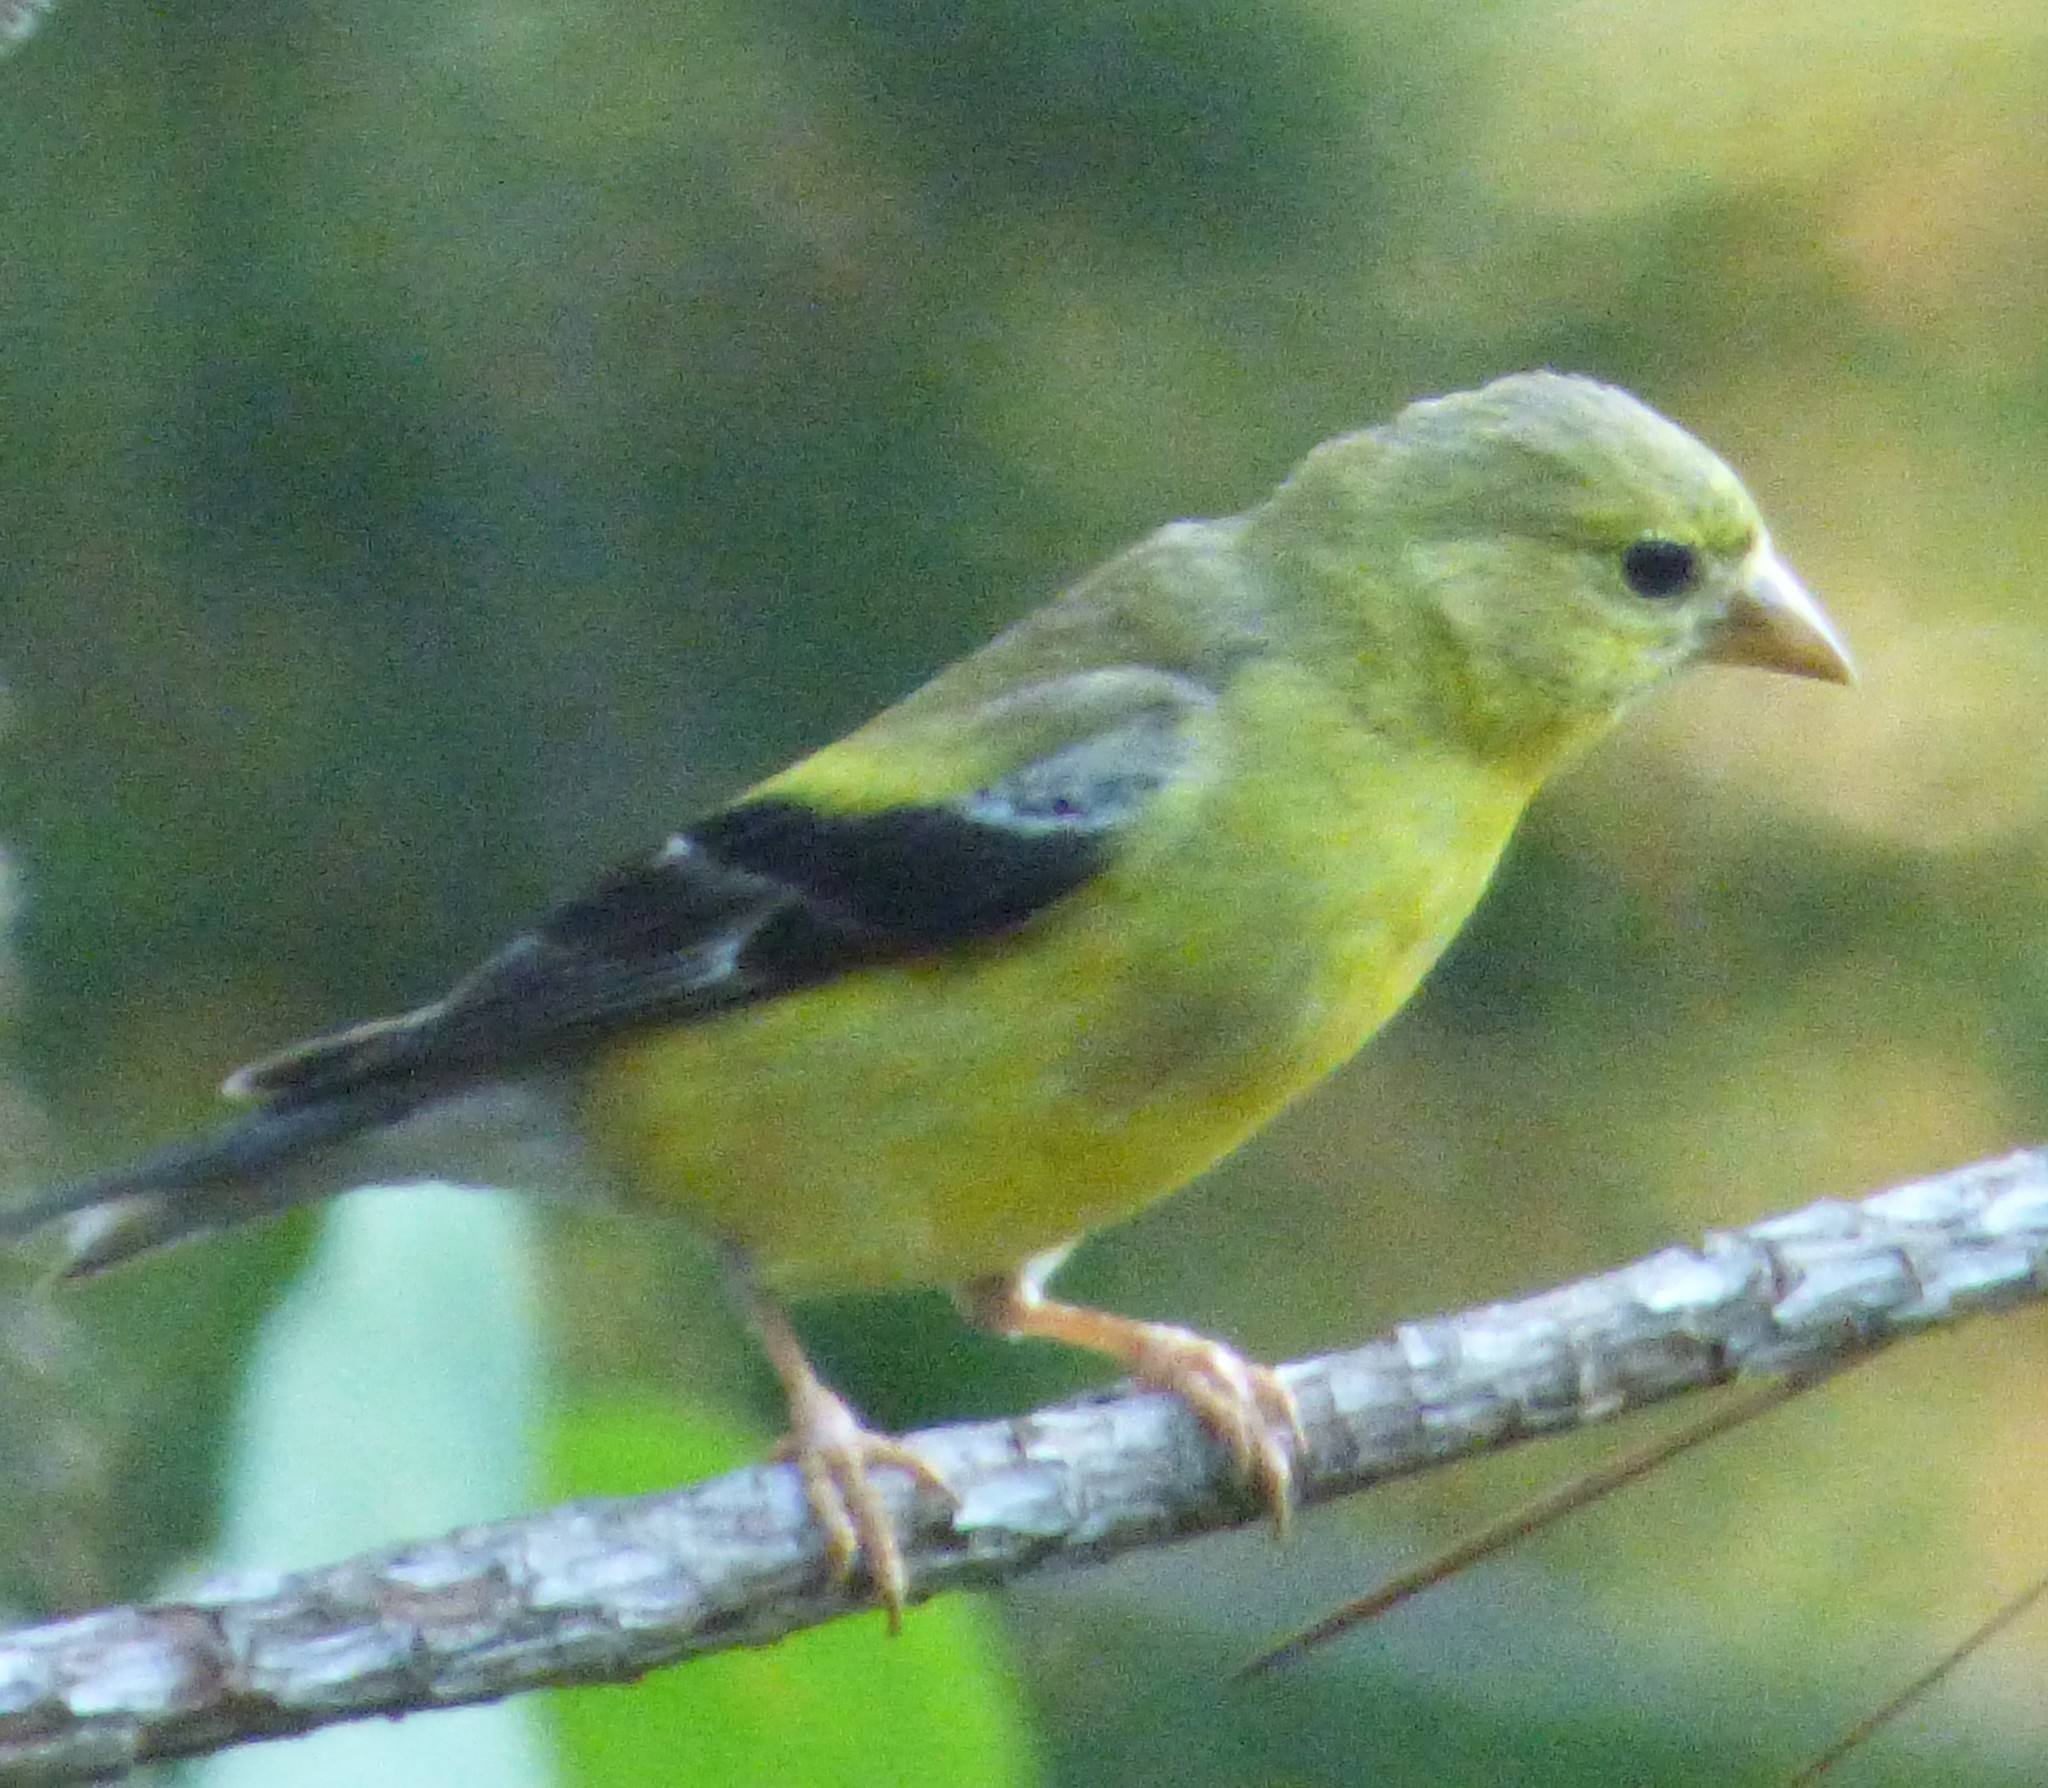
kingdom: Animalia
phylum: Chordata
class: Aves
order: Passeriformes
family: Fringillidae
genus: Spinus
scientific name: Spinus tristis
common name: American goldfinch
